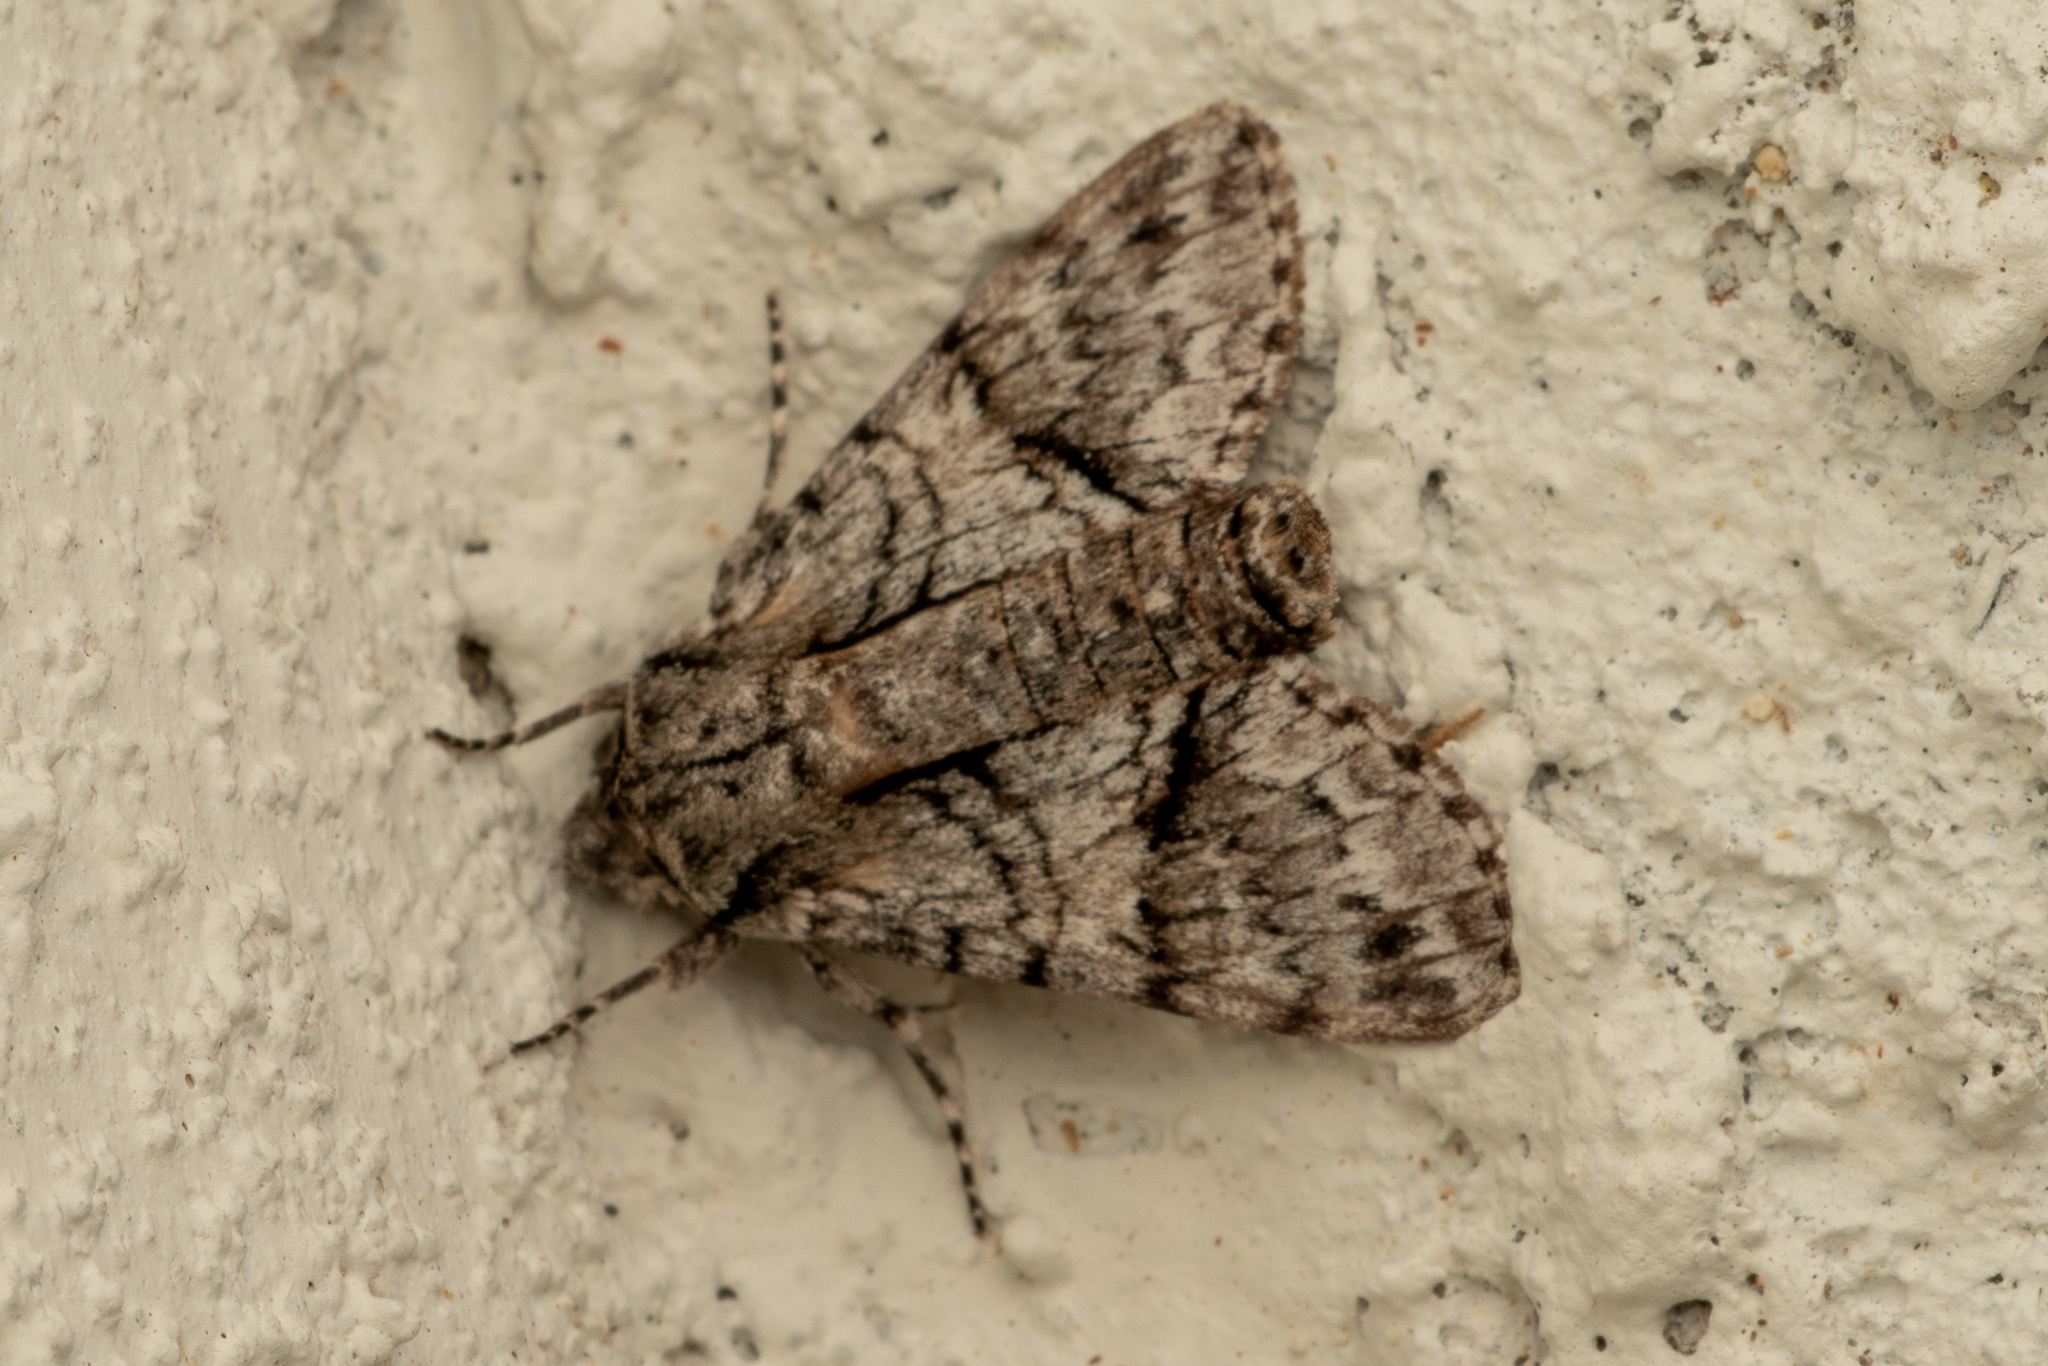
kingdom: Animalia
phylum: Arthropoda
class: Insecta
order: Lepidoptera
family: Sphingidae
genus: Cautethia
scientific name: Cautethia grotei
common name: Grote's sphinx
